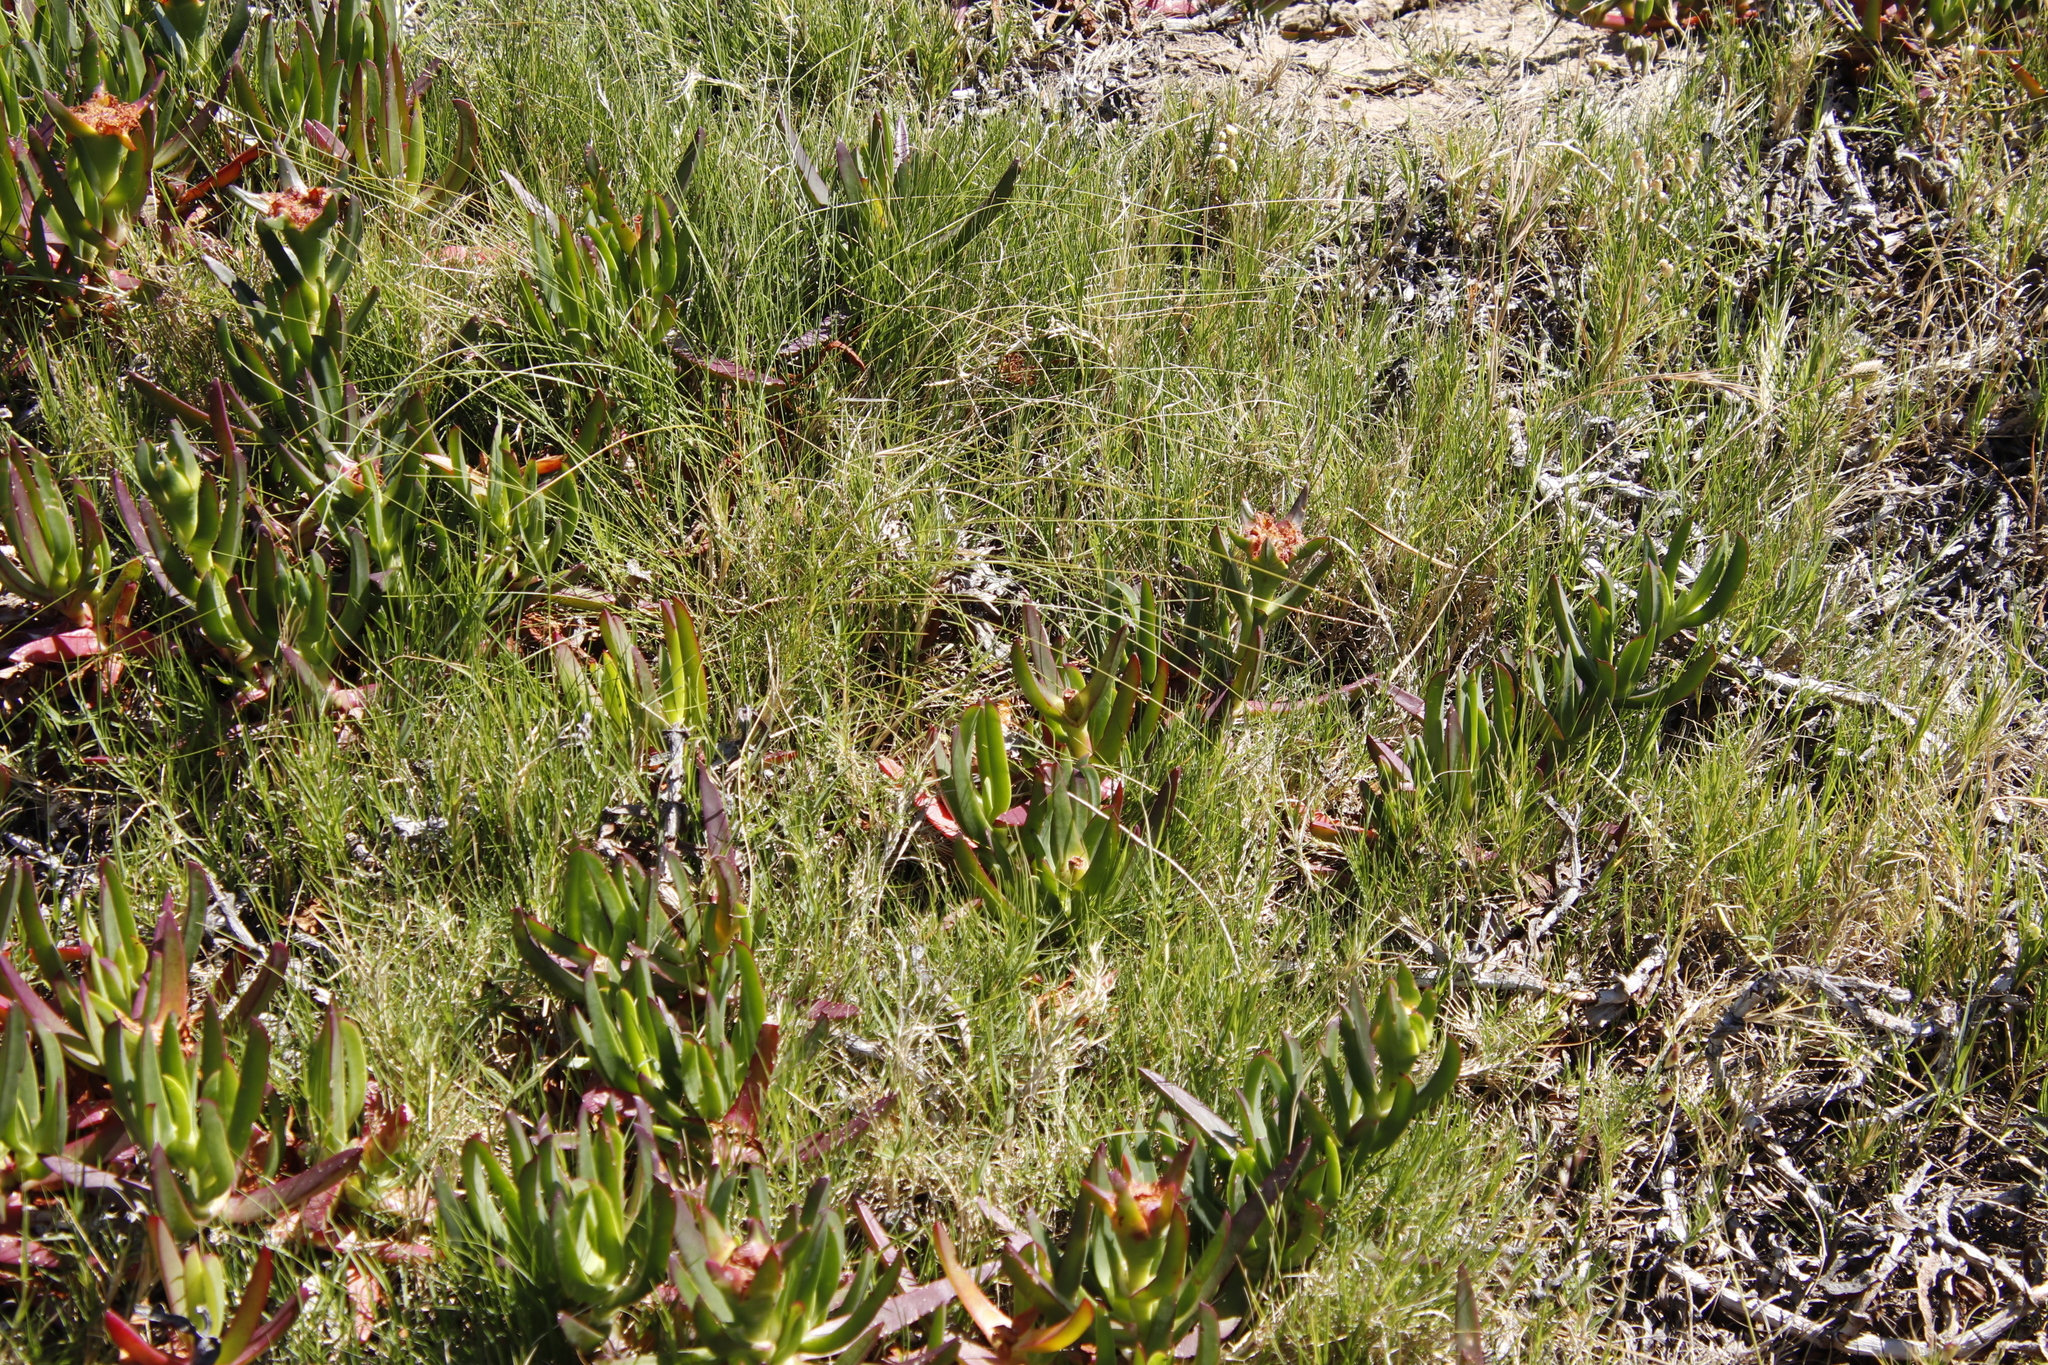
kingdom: Plantae
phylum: Tracheophyta
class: Liliopsida
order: Poales
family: Poaceae
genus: Cynodon
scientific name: Cynodon dactylon
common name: Bermuda grass
